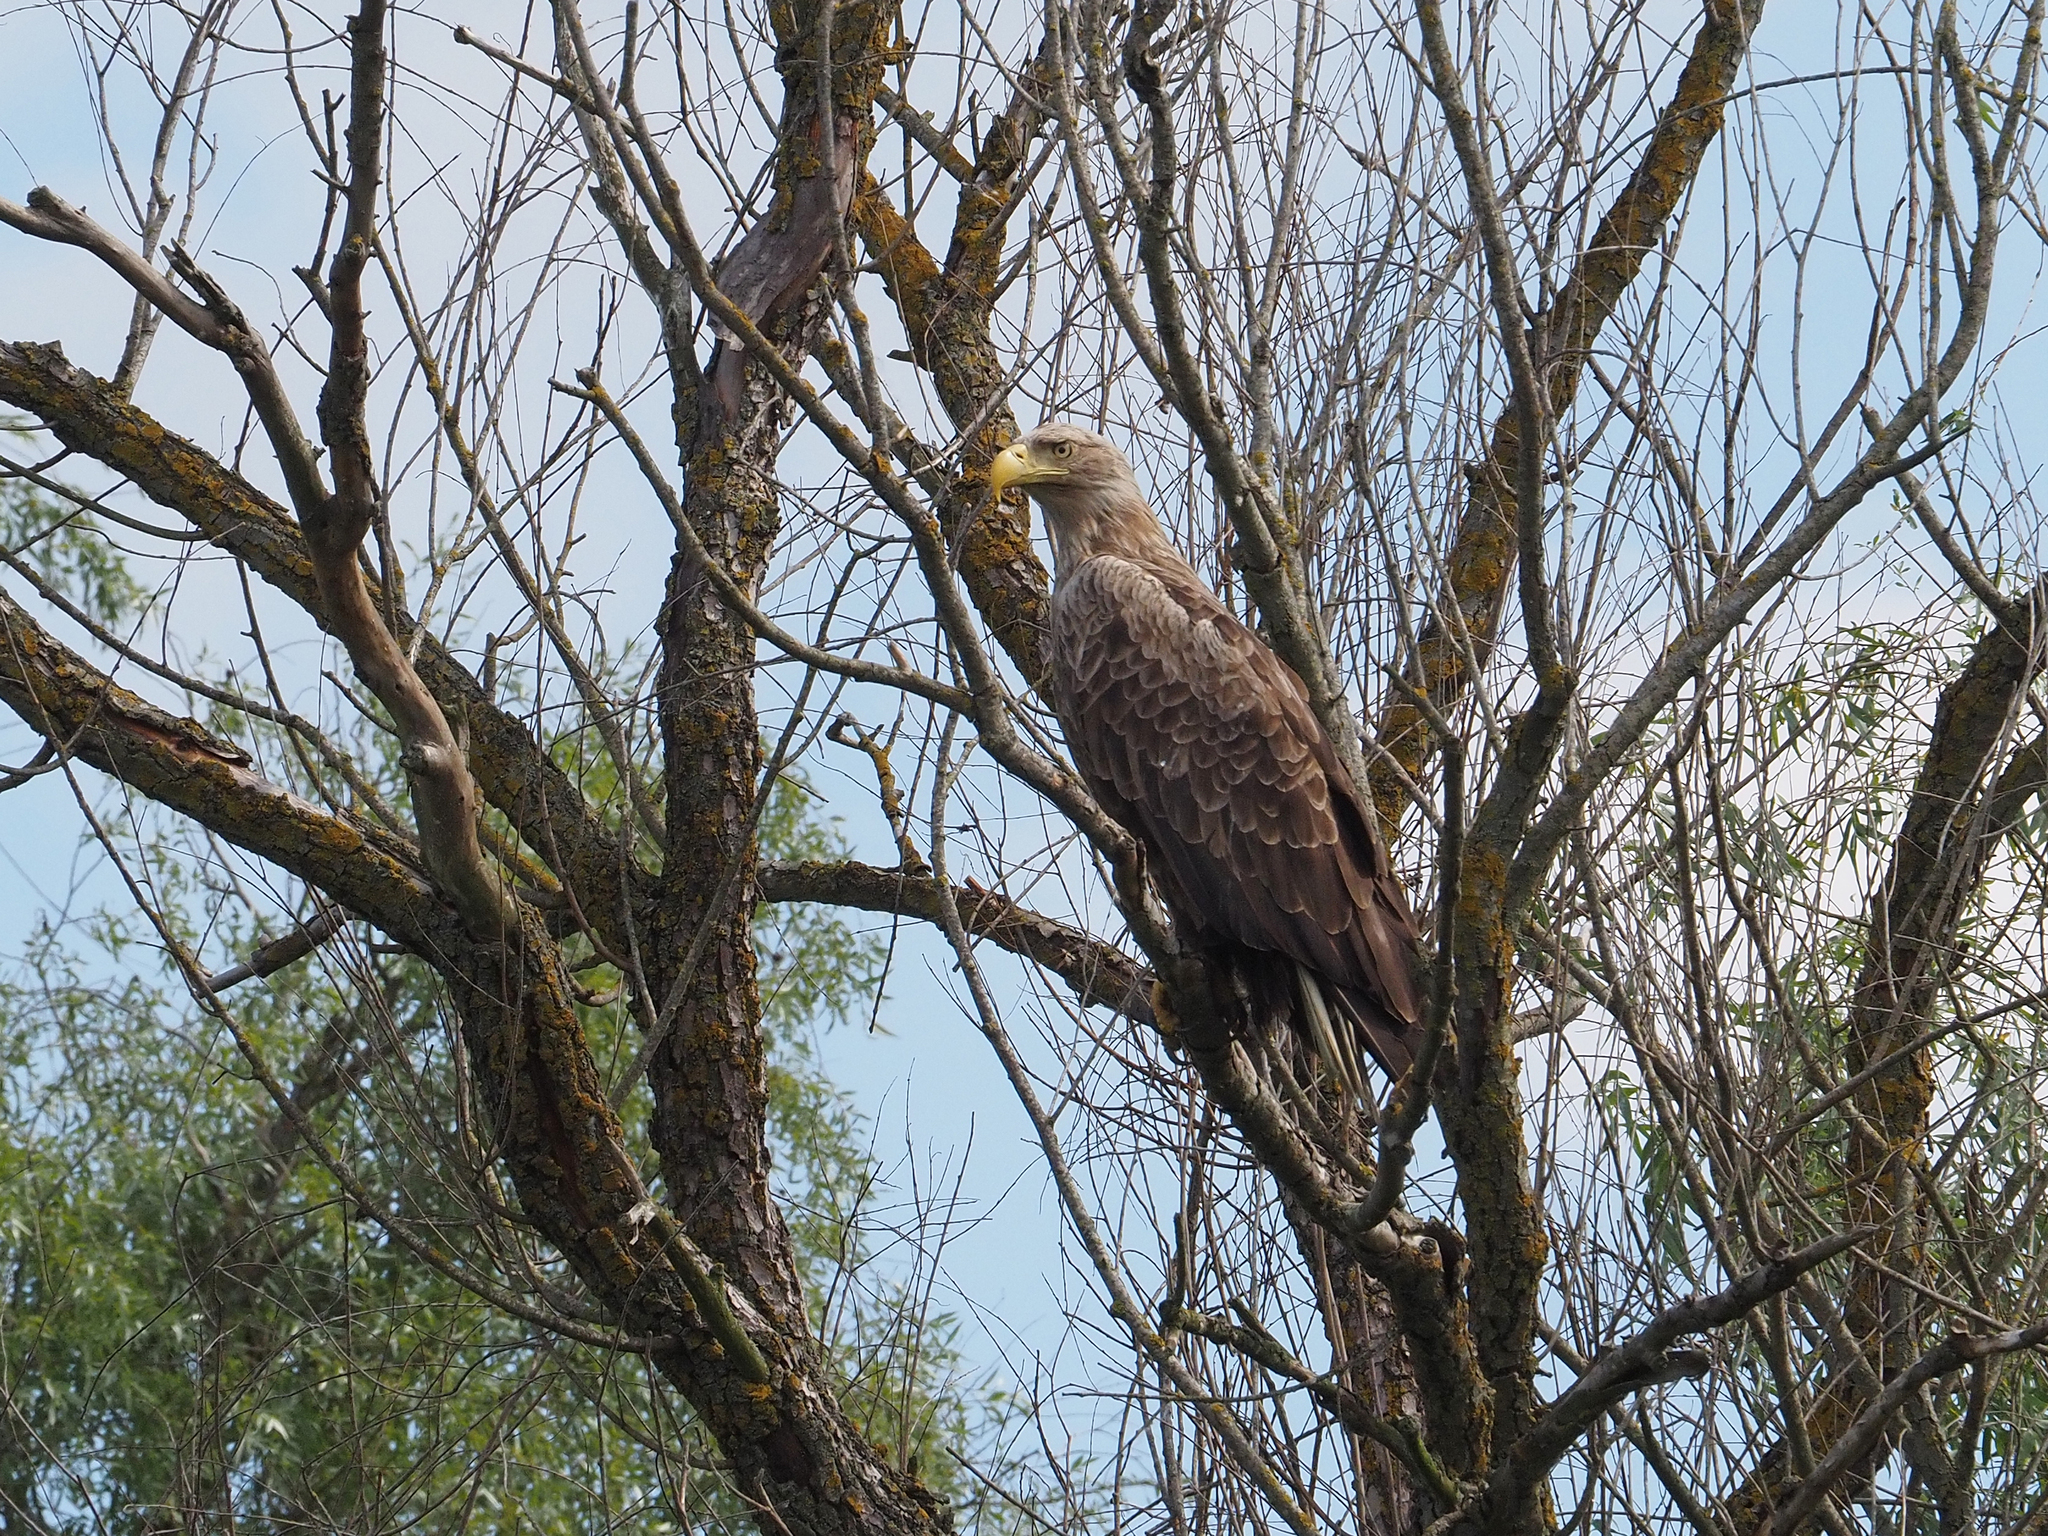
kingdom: Animalia
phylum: Chordata
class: Aves
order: Accipitriformes
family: Accipitridae
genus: Haliaeetus
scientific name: Haliaeetus albicilla
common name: White-tailed eagle
